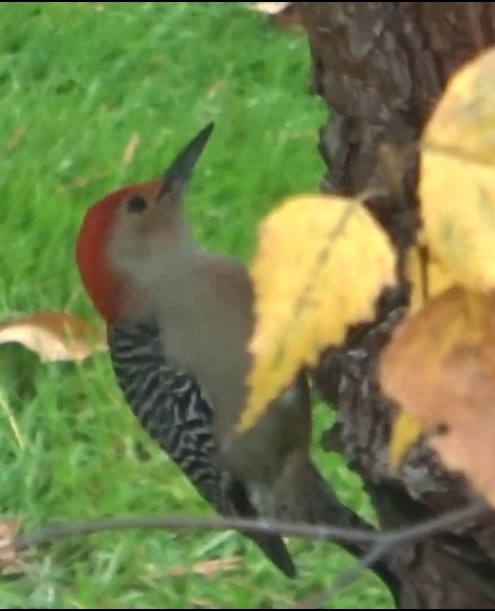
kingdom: Animalia
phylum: Chordata
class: Aves
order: Piciformes
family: Picidae
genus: Melanerpes
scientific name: Melanerpes carolinus
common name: Red-bellied woodpecker
